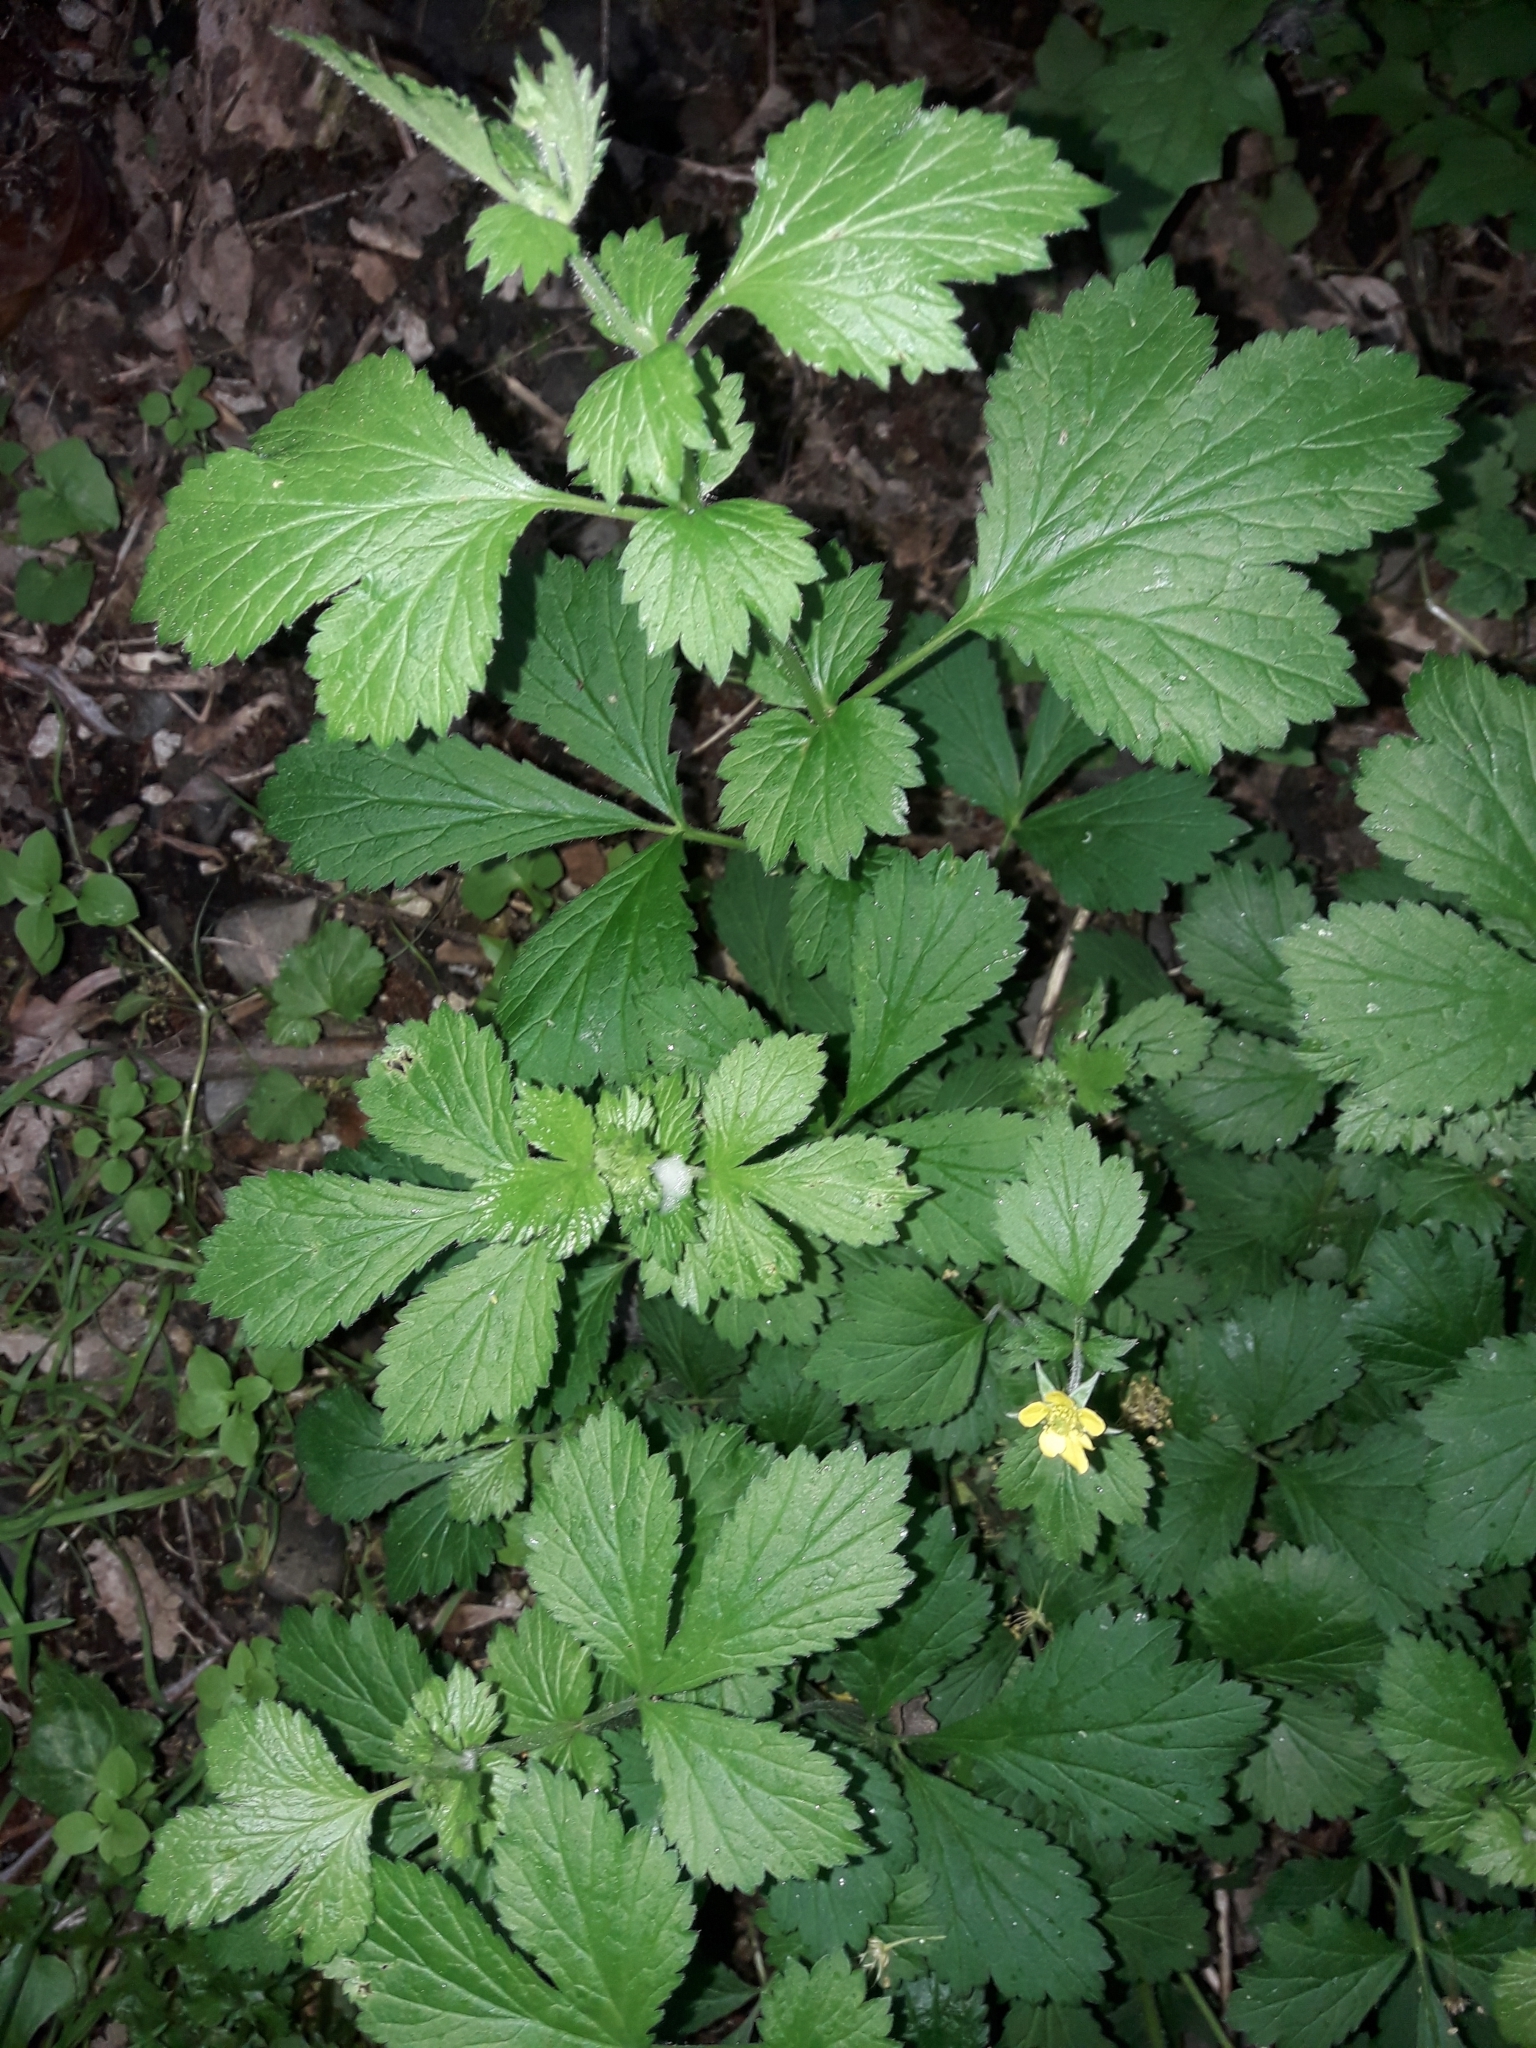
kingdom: Plantae
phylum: Tracheophyta
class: Magnoliopsida
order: Rosales
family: Rosaceae
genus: Geum
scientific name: Geum urbanum
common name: Wood avens
